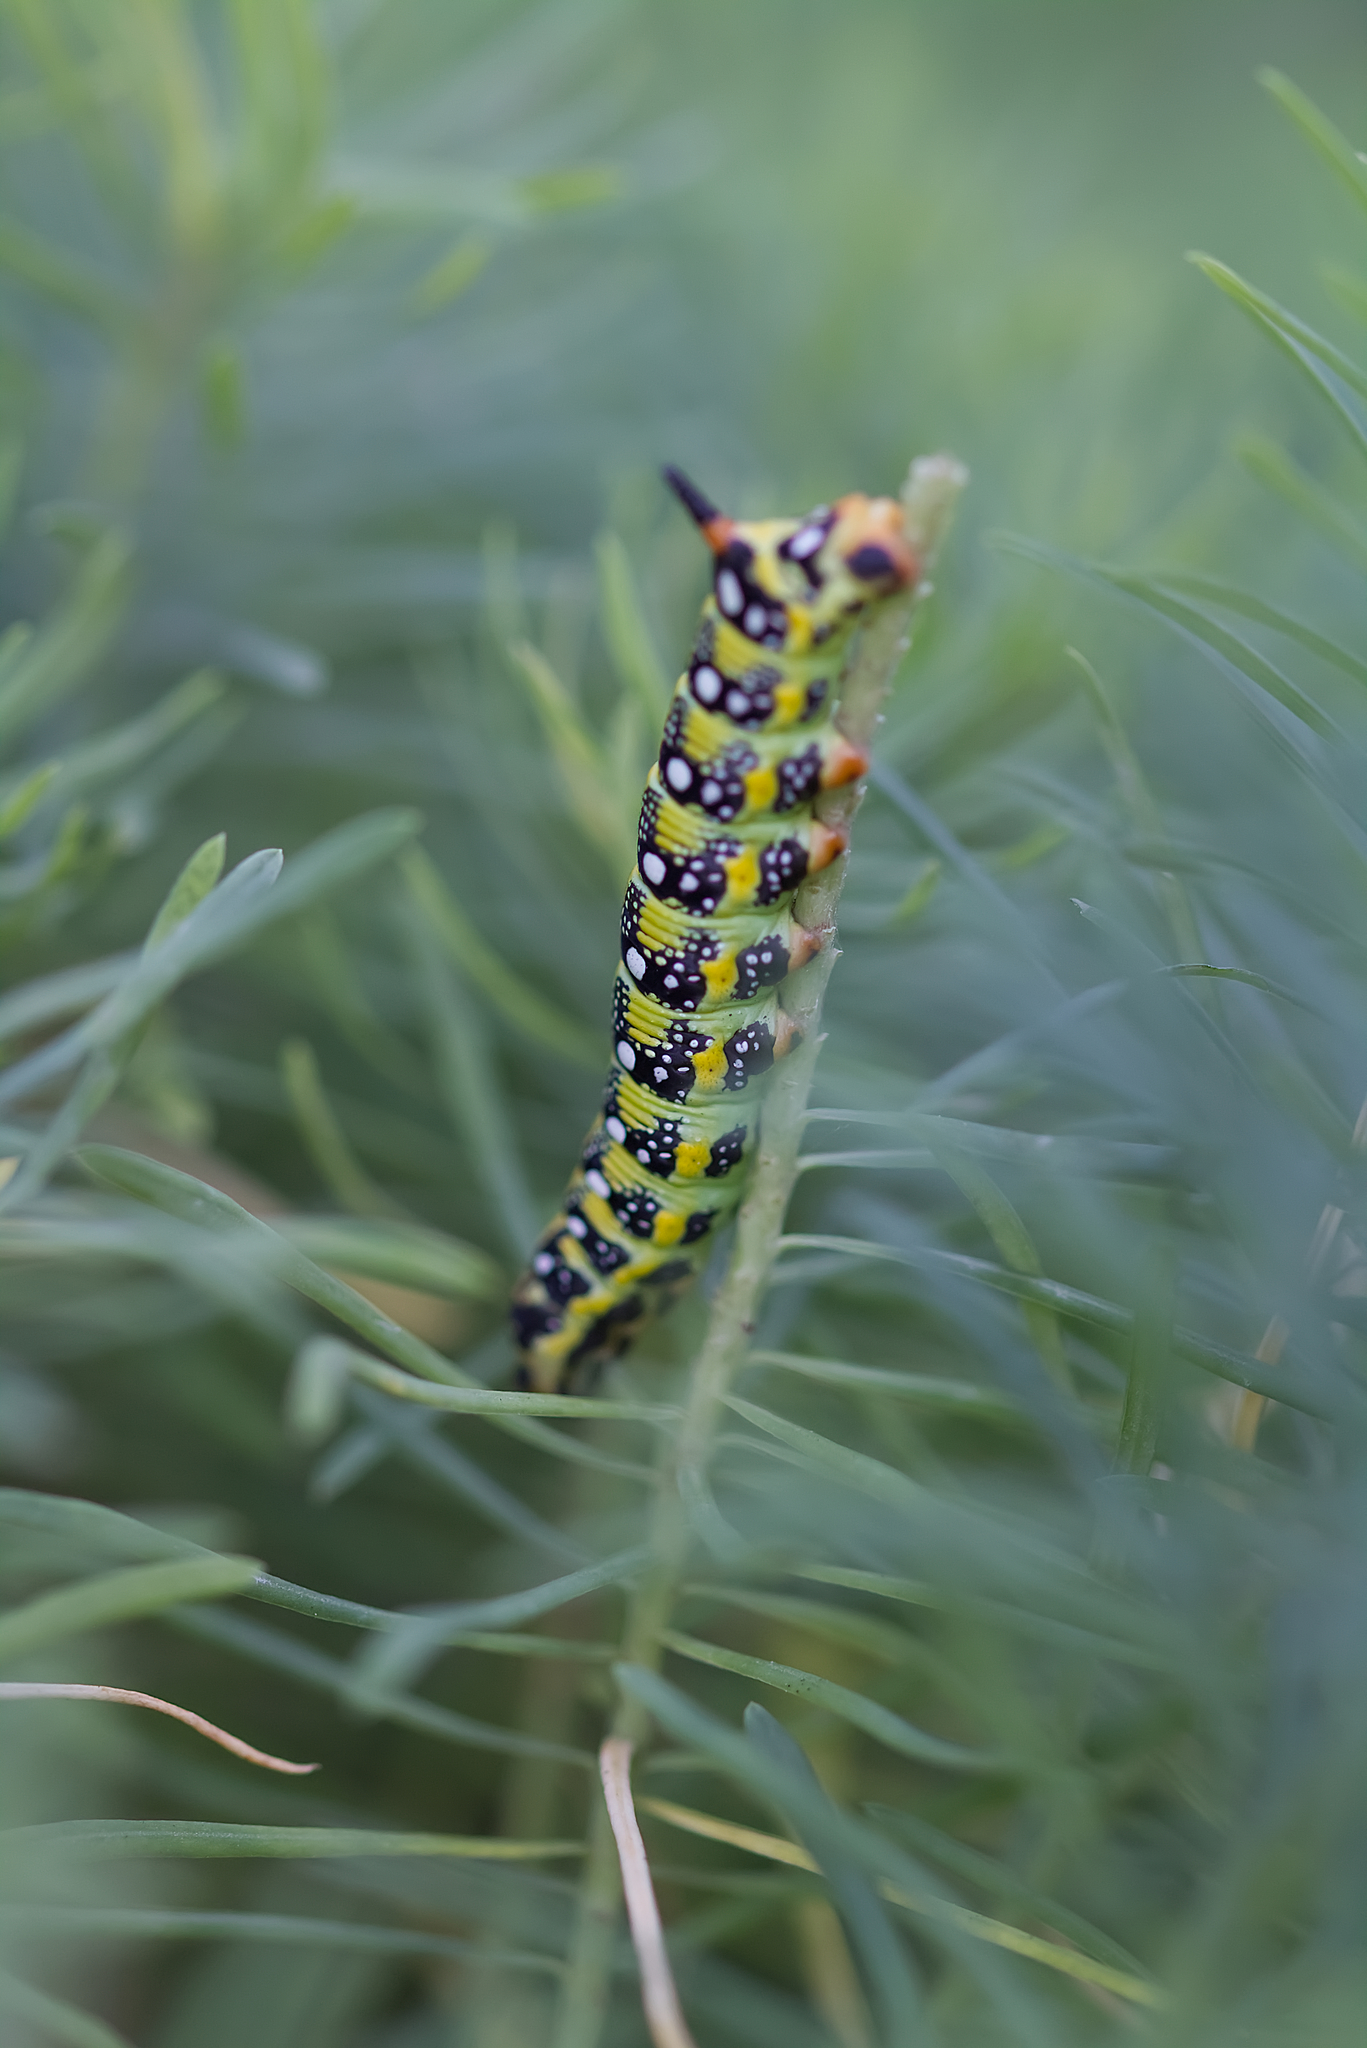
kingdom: Animalia
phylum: Arthropoda
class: Insecta
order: Lepidoptera
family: Sphingidae
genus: Hyles
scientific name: Hyles euphorbiae
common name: Spurge hawk-moth
